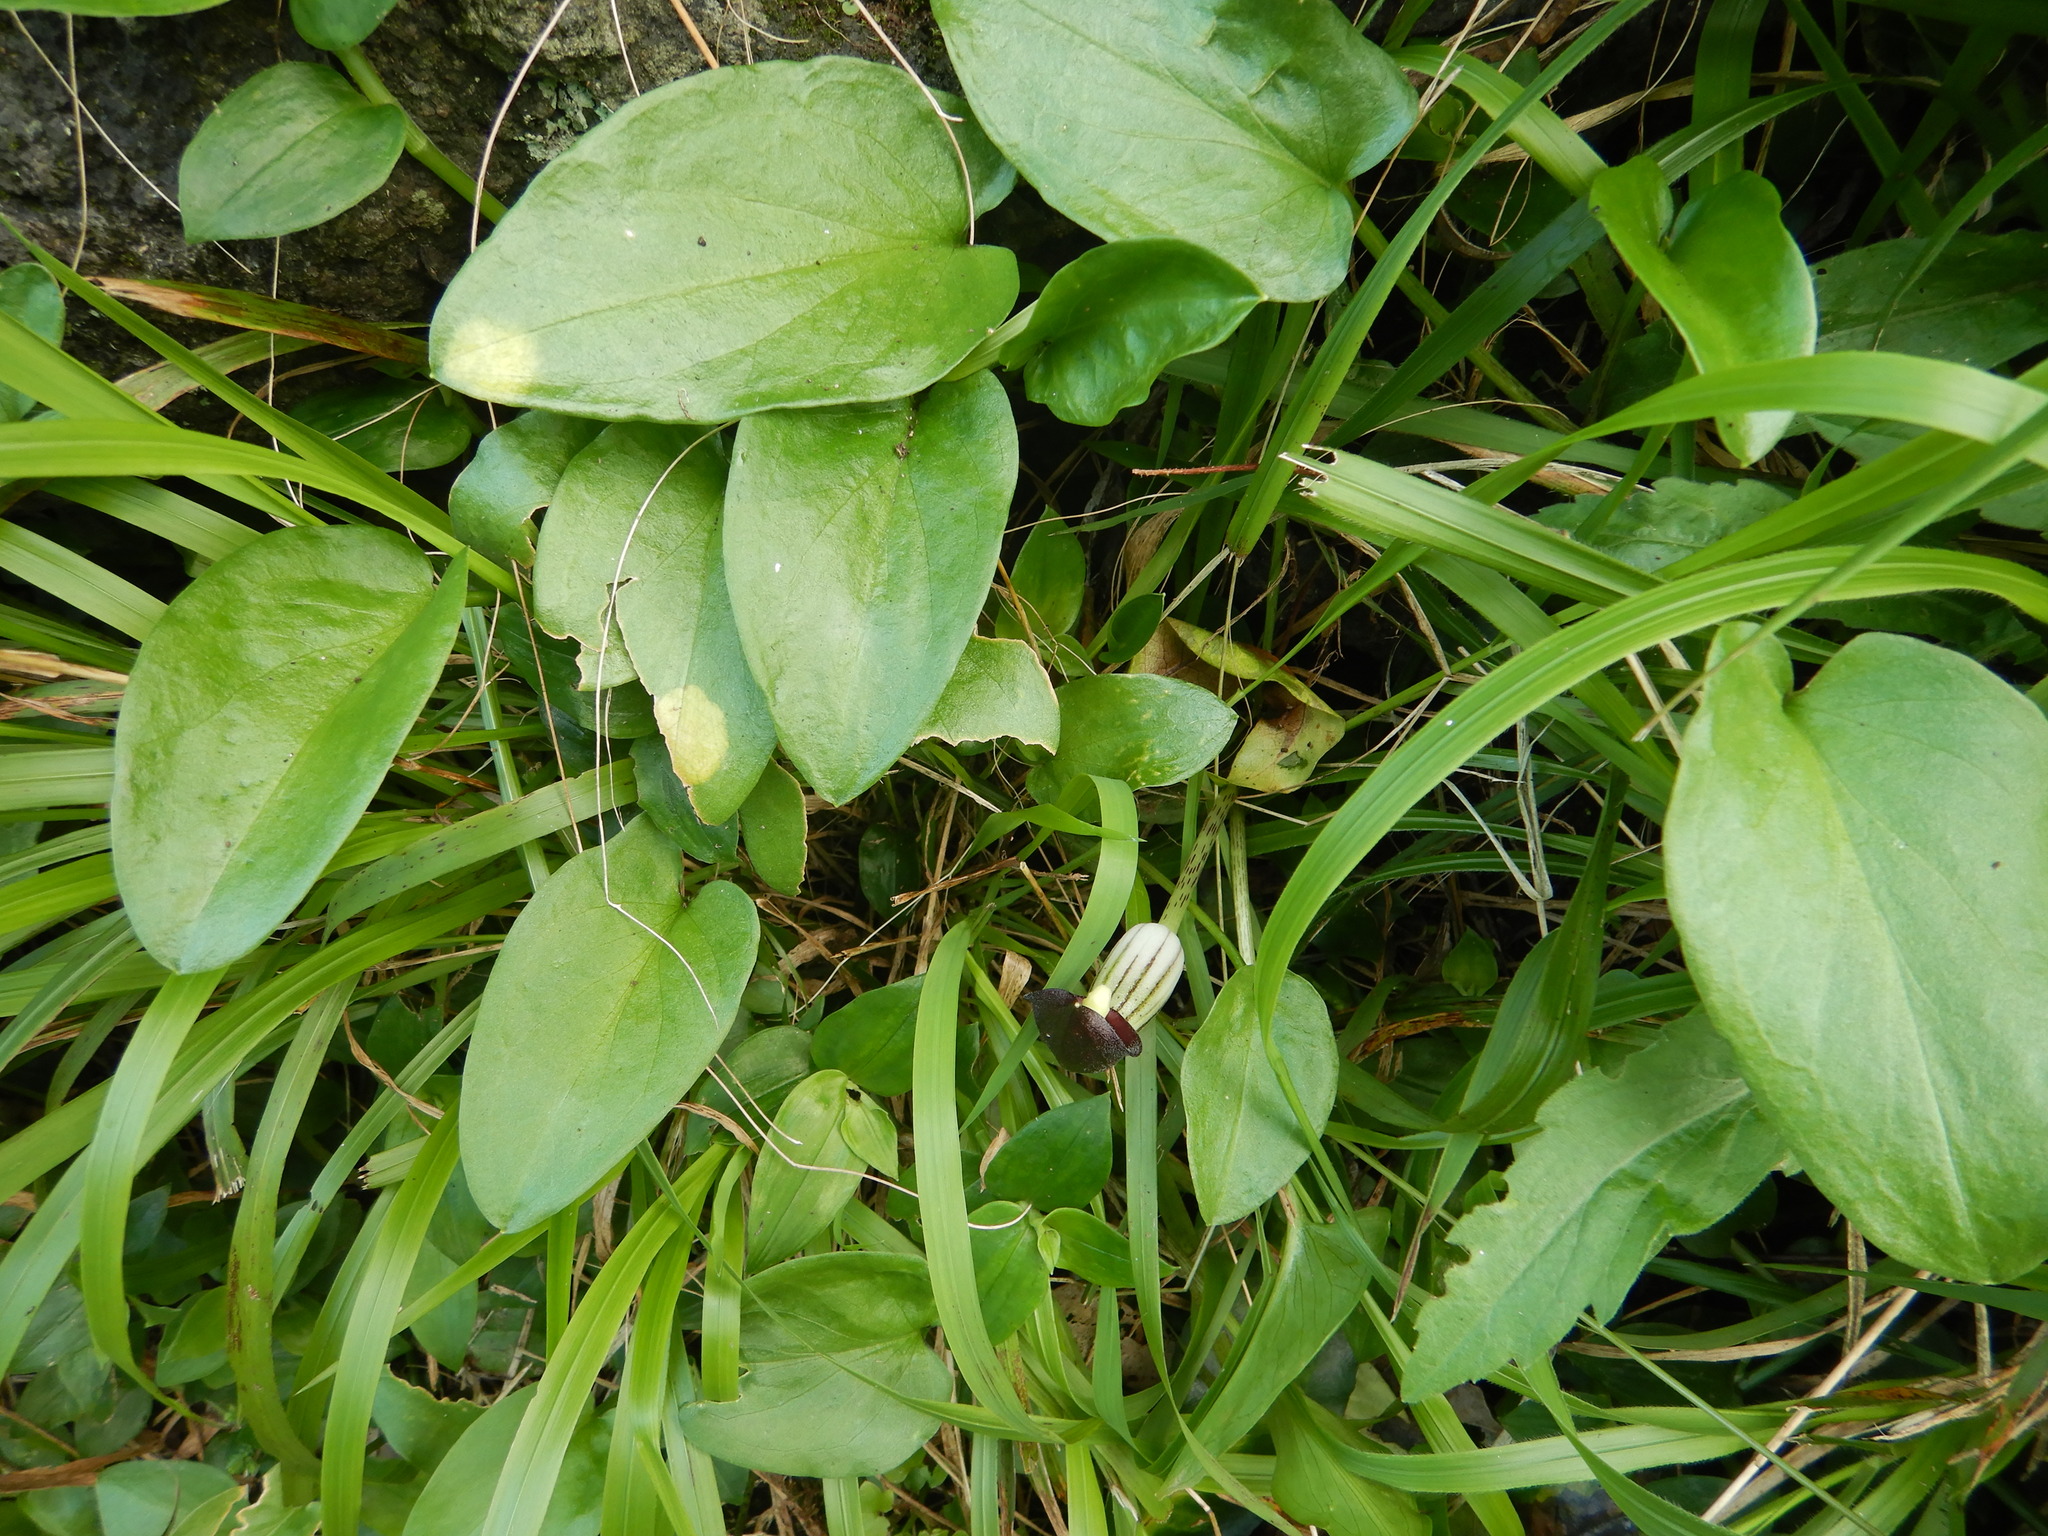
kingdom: Plantae
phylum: Tracheophyta
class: Liliopsida
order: Alismatales
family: Araceae
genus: Arisarum
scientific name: Arisarum simorrhinum
